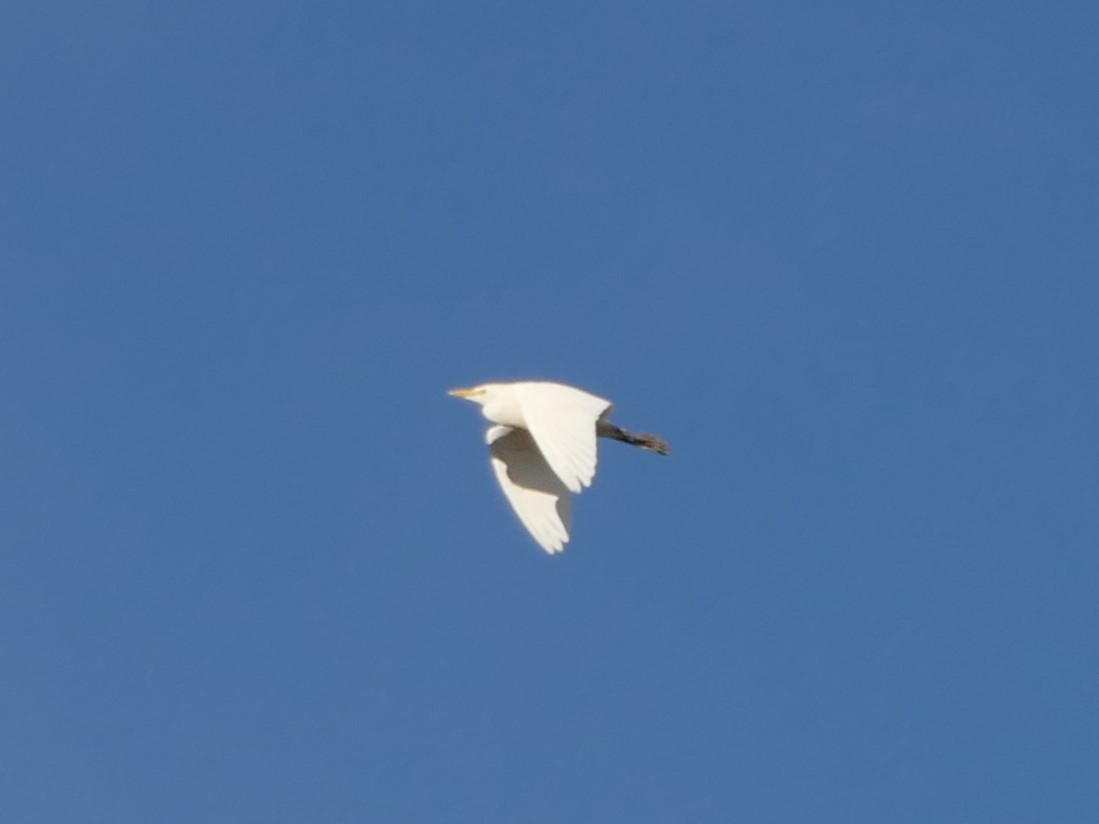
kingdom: Animalia
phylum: Chordata
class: Aves
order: Pelecaniformes
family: Ardeidae
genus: Bubulcus
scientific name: Bubulcus ibis
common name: Cattle egret
